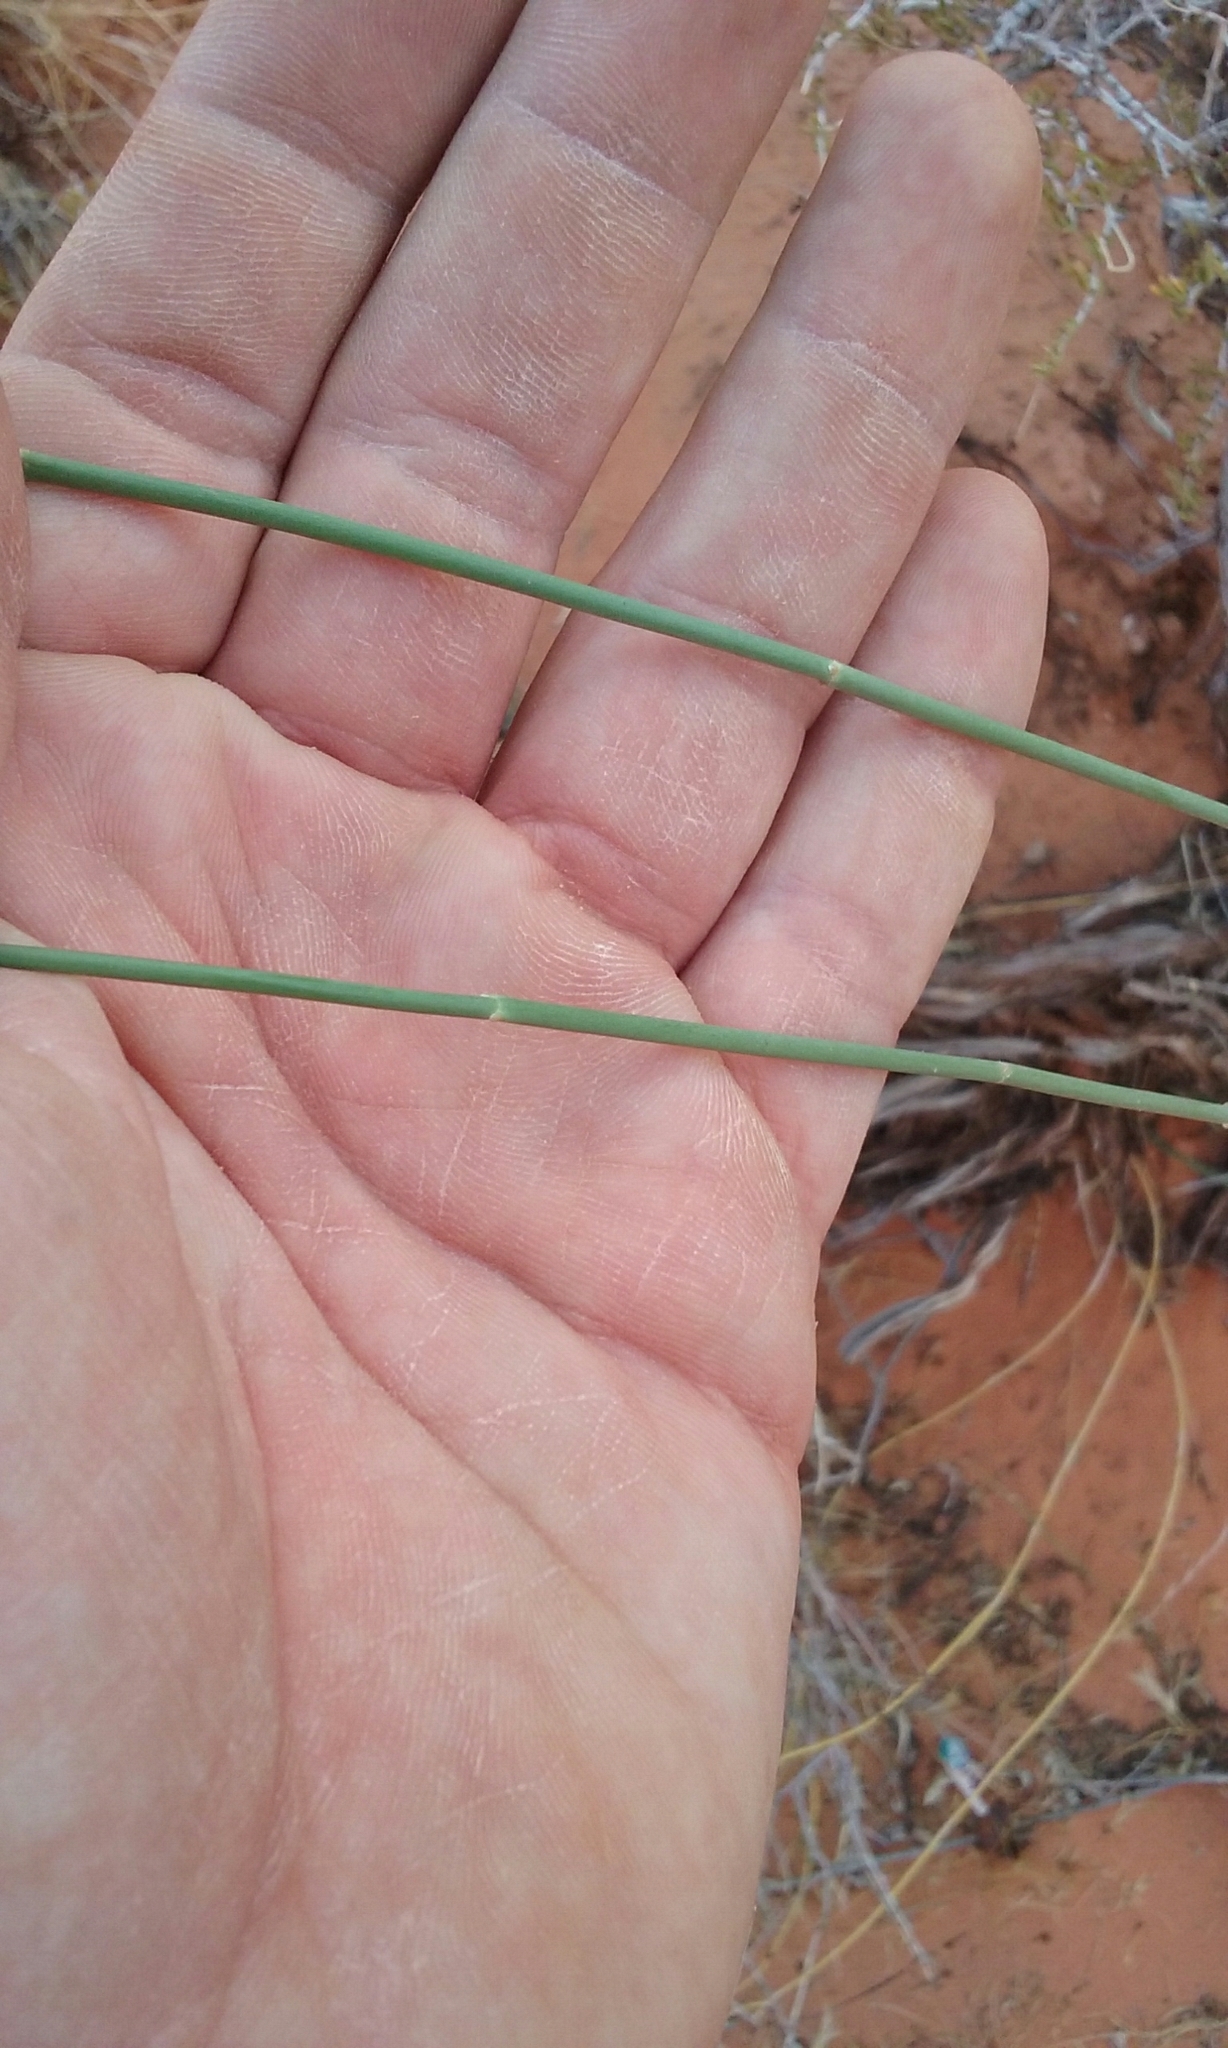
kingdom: Plantae
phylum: Tracheophyta
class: Magnoliopsida
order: Gentianales
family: Apocynaceae
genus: Asclepias
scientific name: Asclepias subulata
